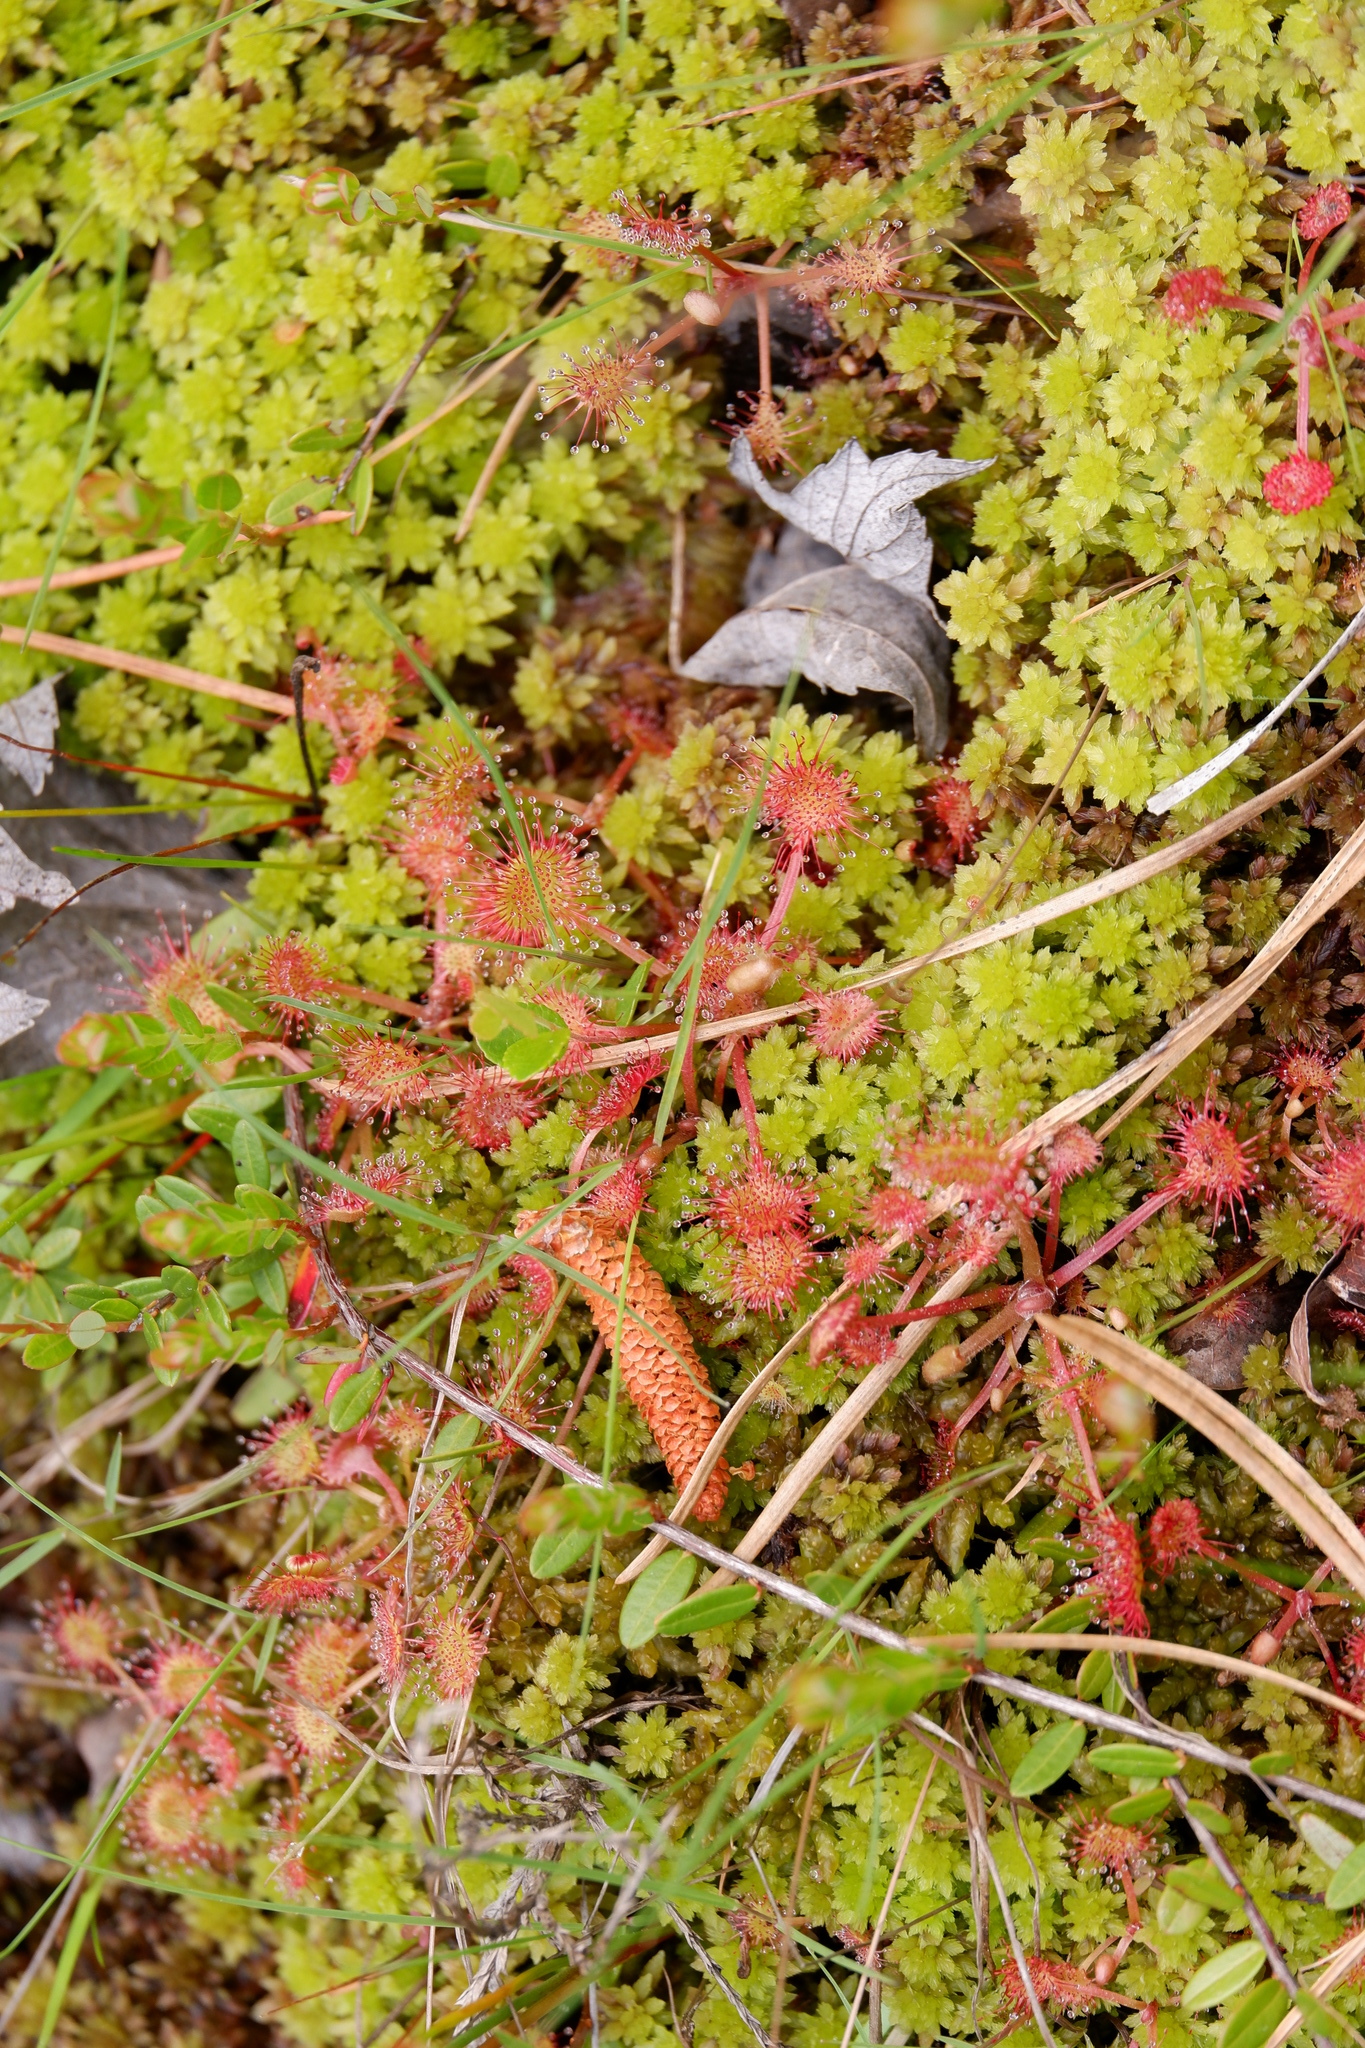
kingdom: Plantae
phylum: Tracheophyta
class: Magnoliopsida
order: Caryophyllales
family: Droseraceae
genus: Drosera
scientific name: Drosera rotundifolia
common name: Round-leaved sundew
